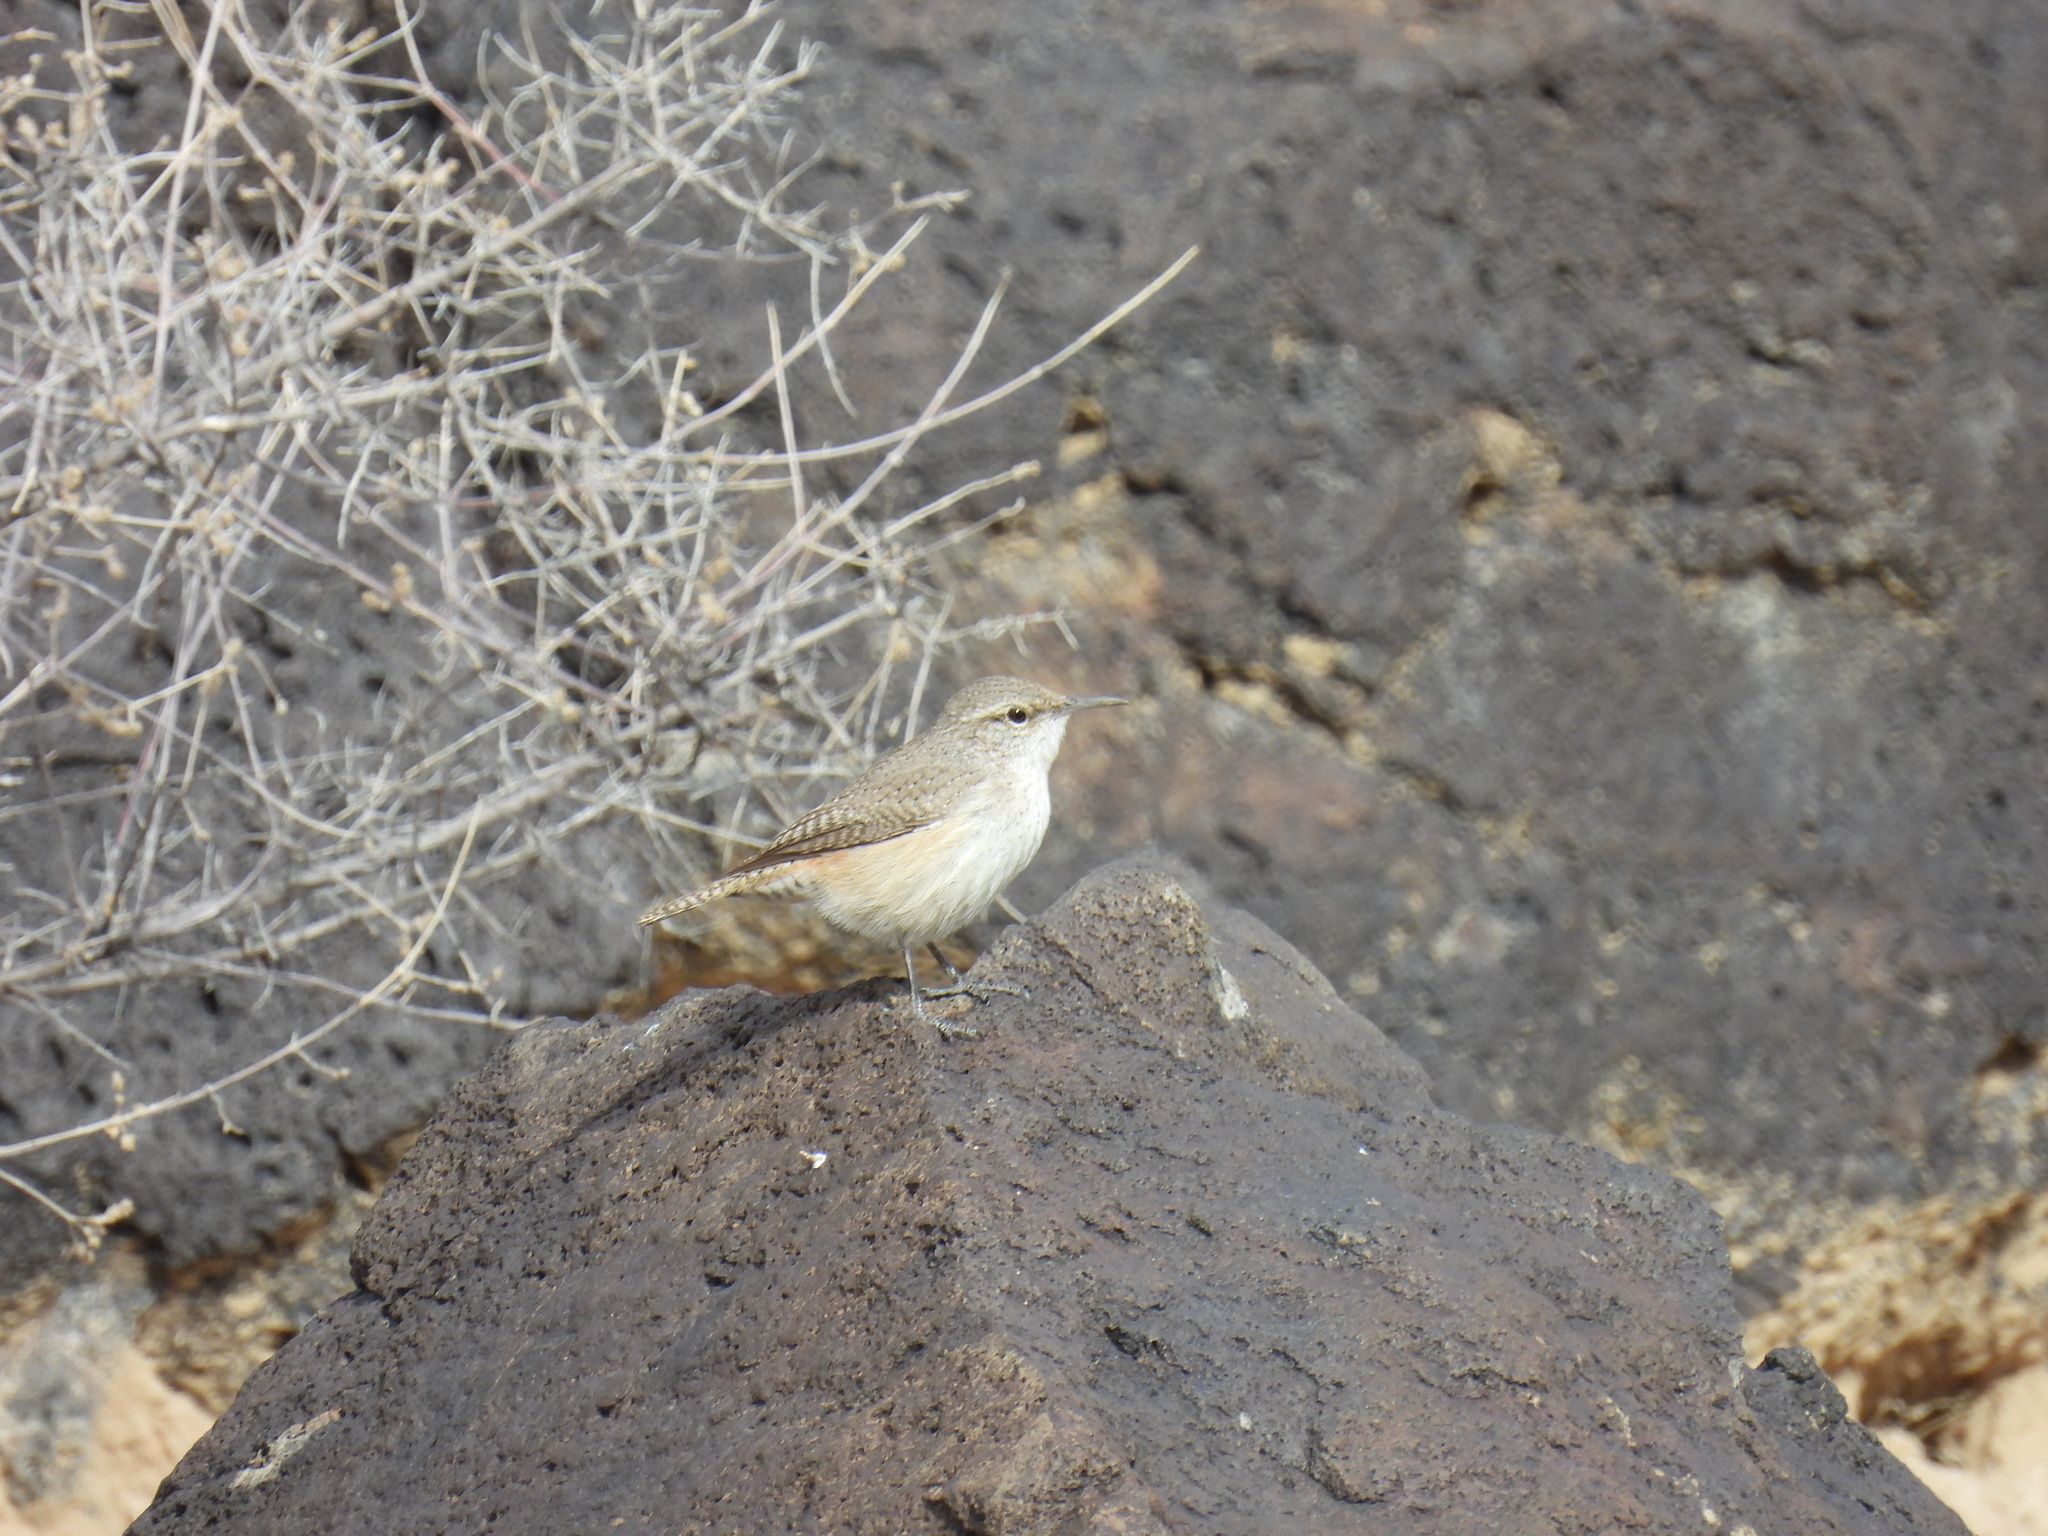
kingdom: Animalia
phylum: Chordata
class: Aves
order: Passeriformes
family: Troglodytidae
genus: Salpinctes
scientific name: Salpinctes obsoletus
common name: Rock wren
